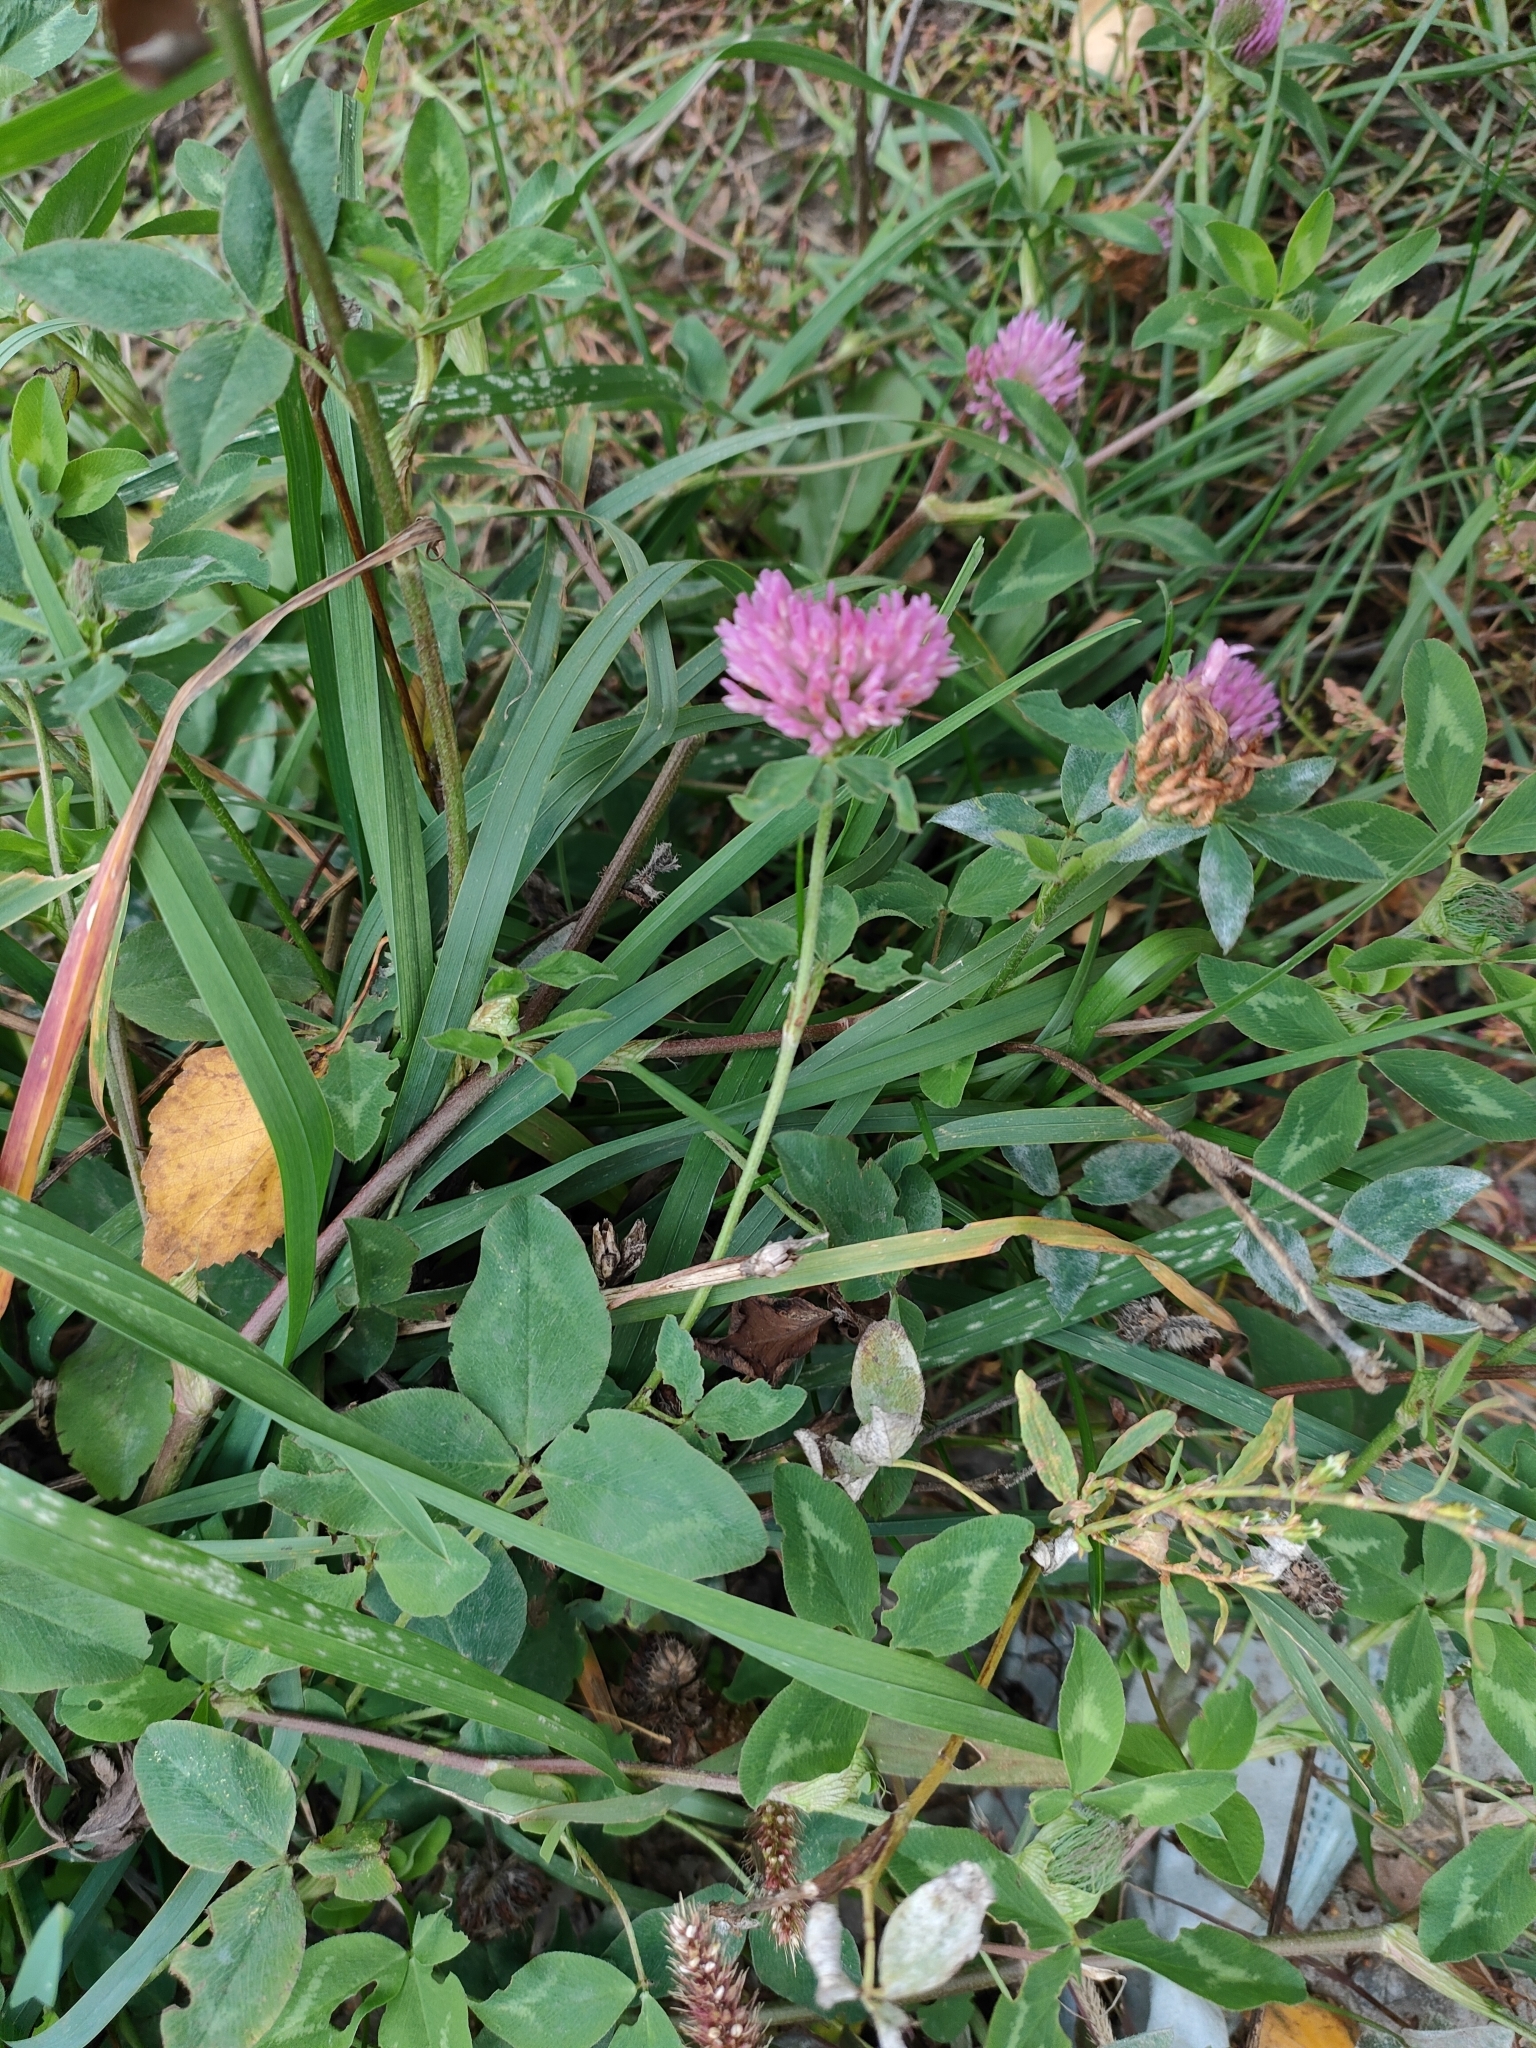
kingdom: Plantae
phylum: Tracheophyta
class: Magnoliopsida
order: Fabales
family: Fabaceae
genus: Trifolium
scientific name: Trifolium pratense
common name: Red clover
